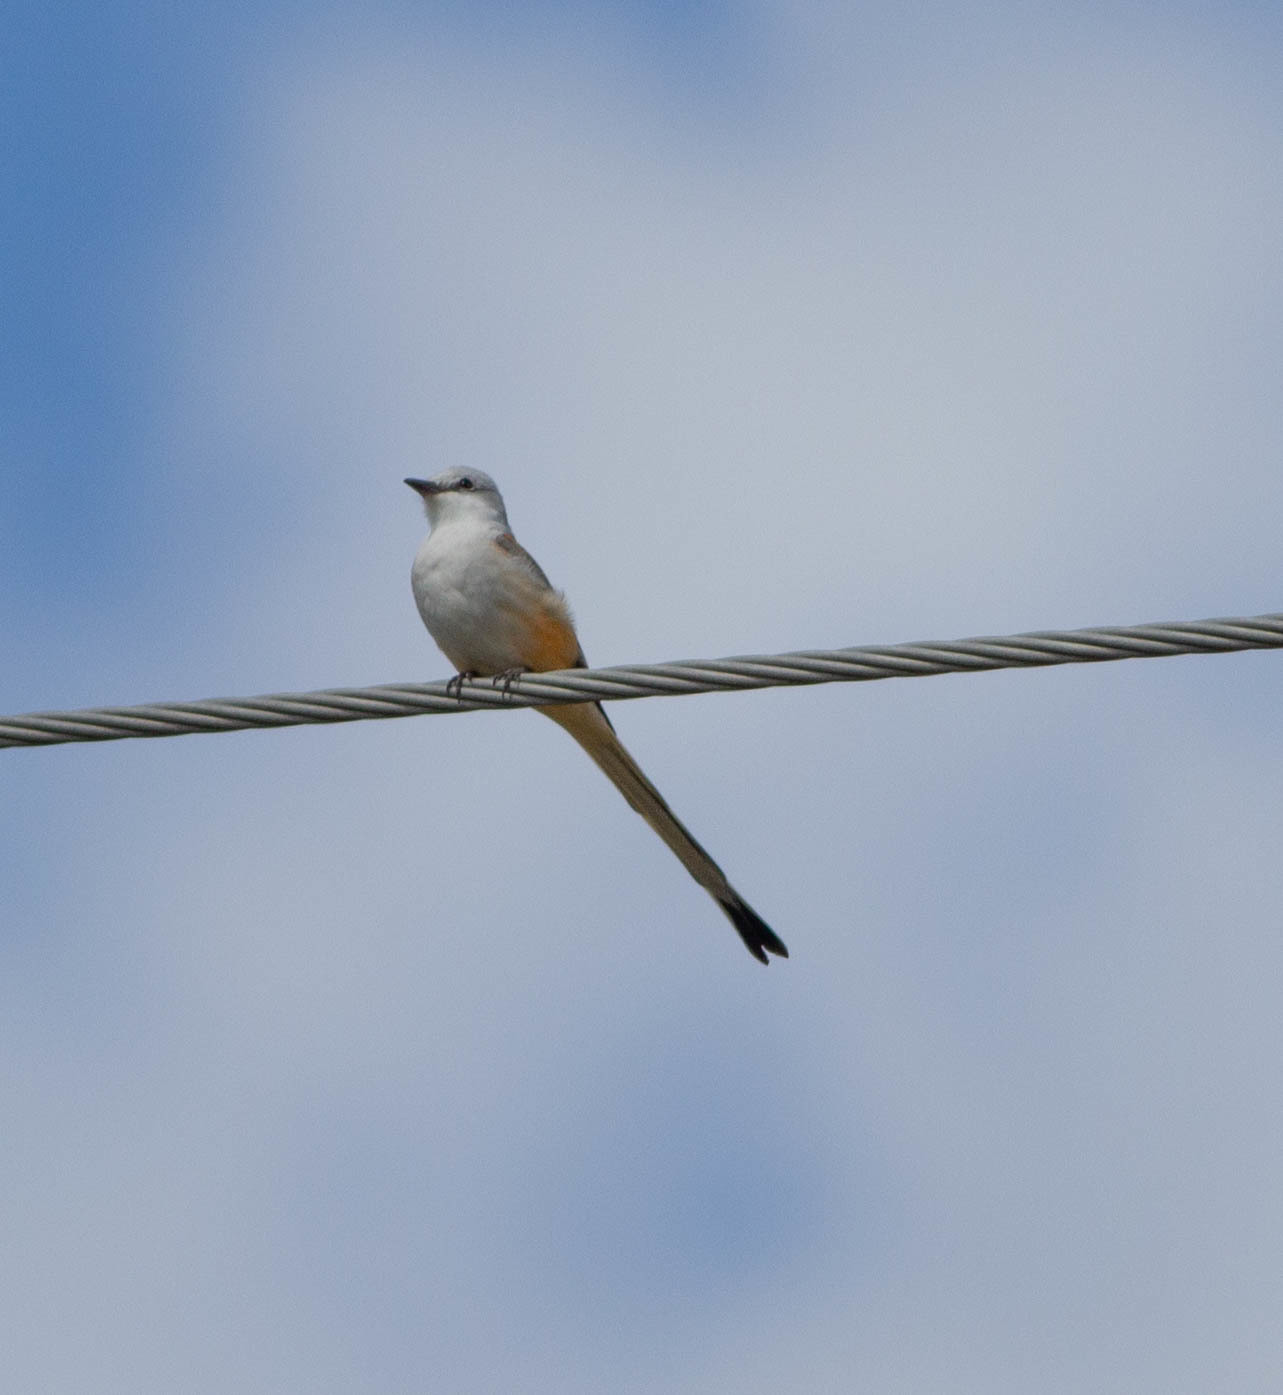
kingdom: Animalia
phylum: Chordata
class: Aves
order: Passeriformes
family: Tyrannidae
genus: Tyrannus
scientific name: Tyrannus forficatus
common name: Scissor-tailed flycatcher
